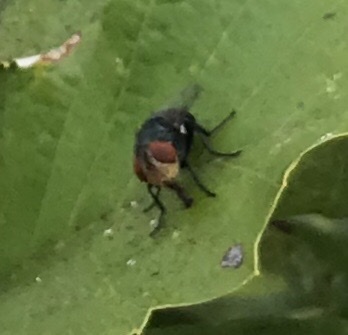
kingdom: Animalia
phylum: Arthropoda
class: Insecta
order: Diptera
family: Calliphoridae
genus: Chrysomya
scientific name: Chrysomya megacephala
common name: Blow fly
